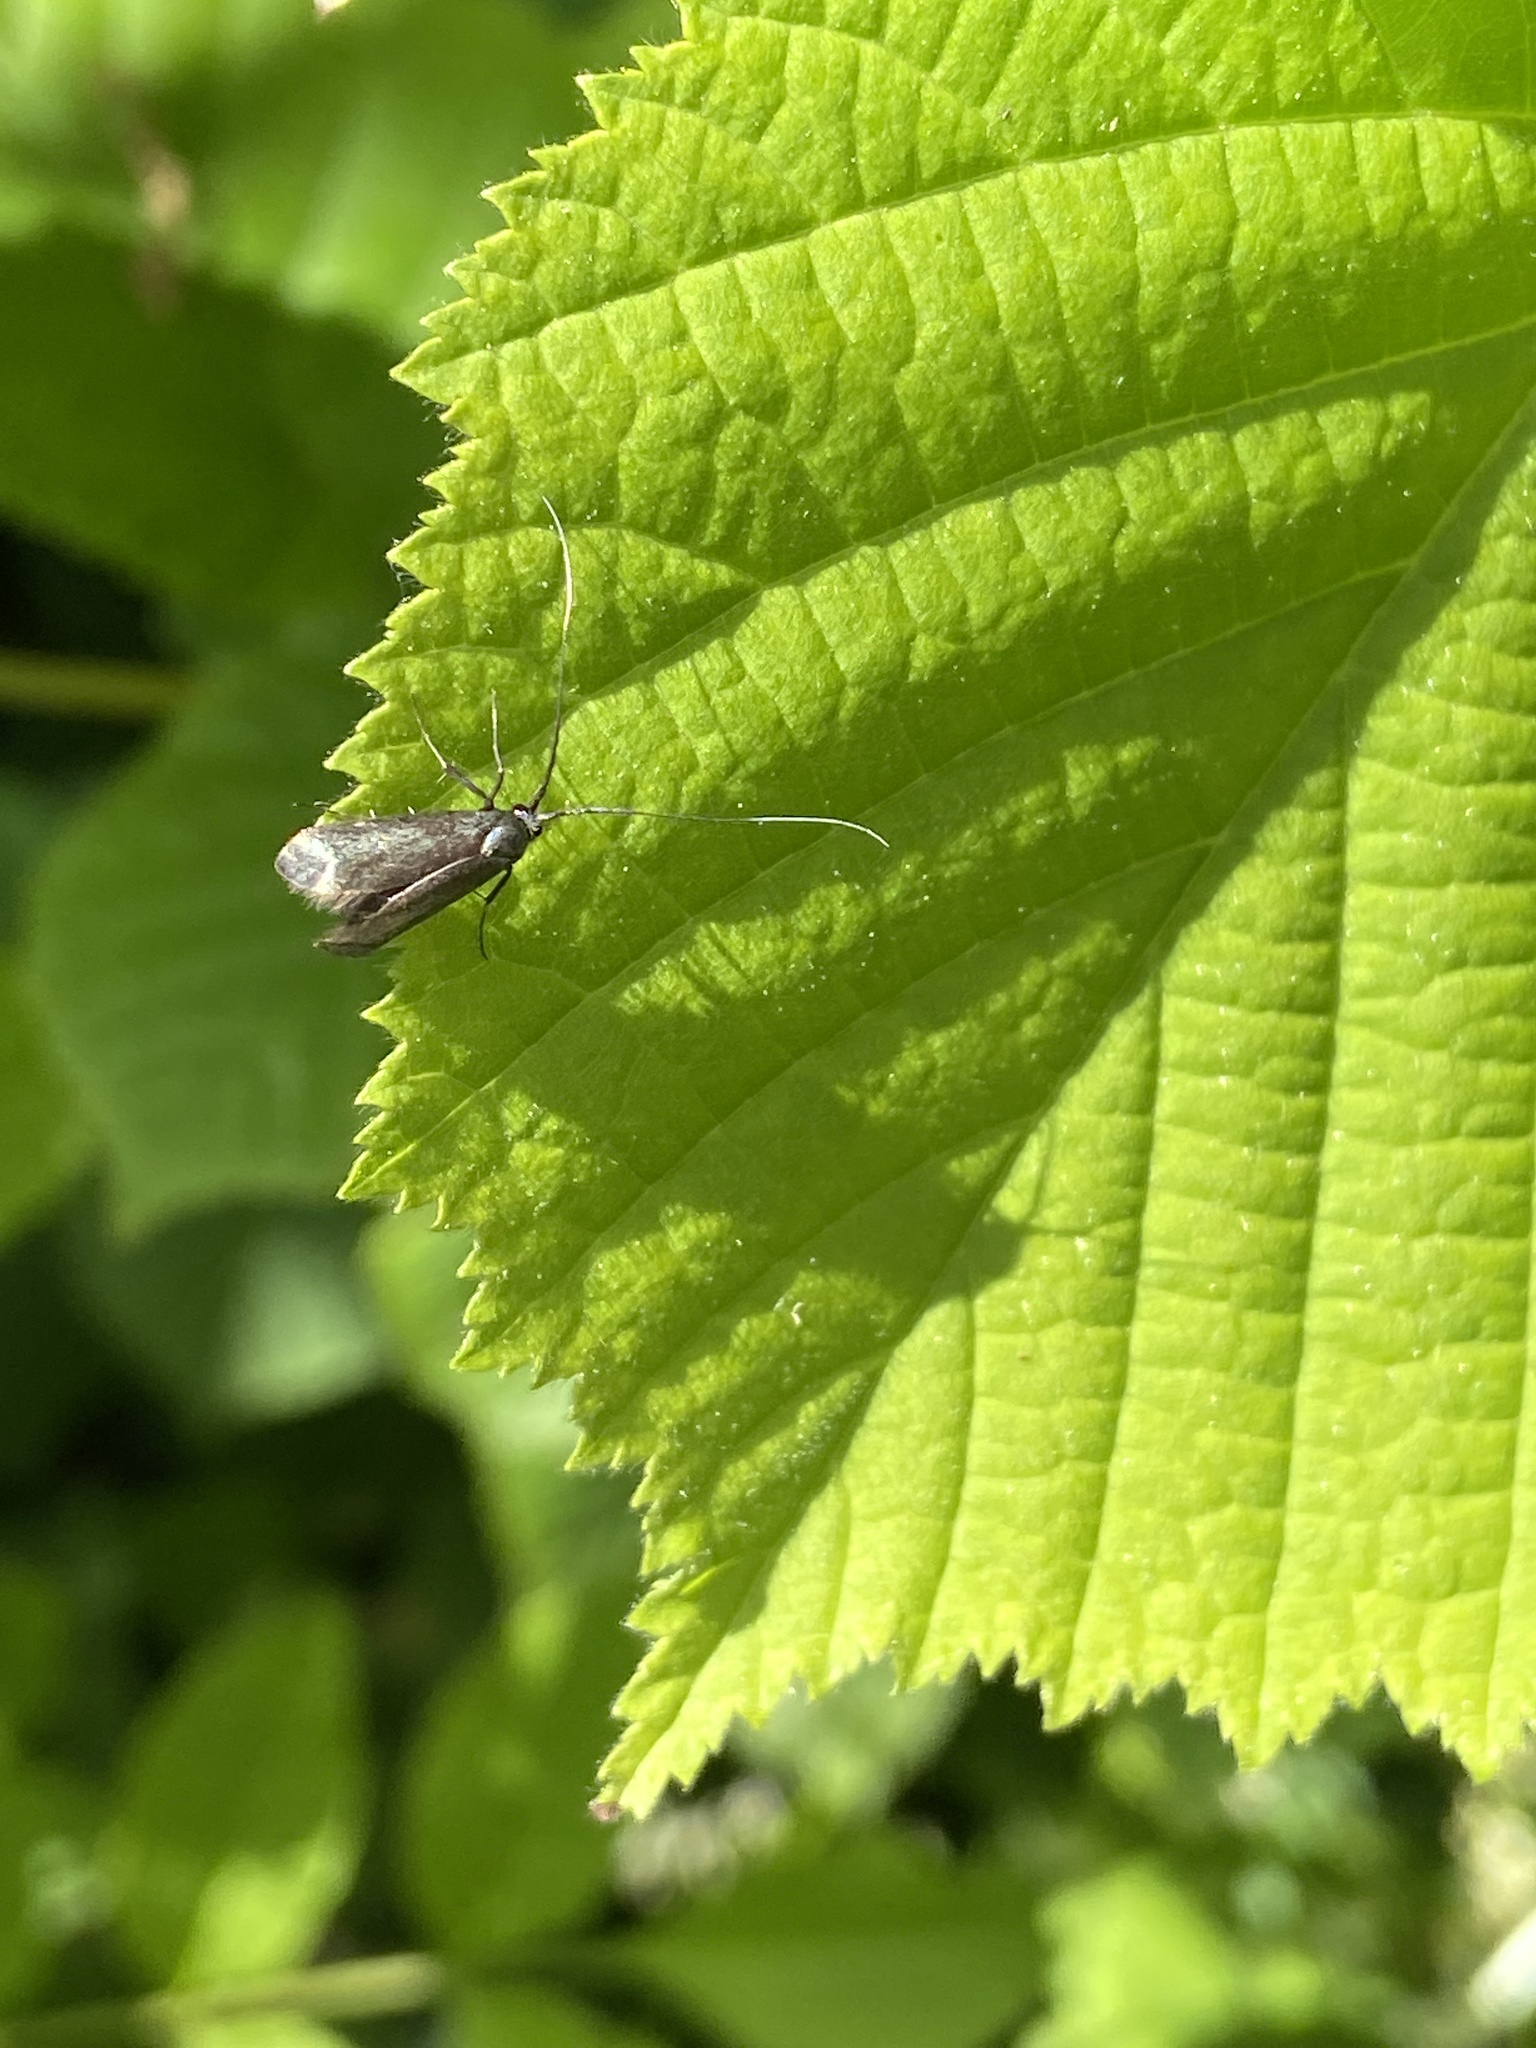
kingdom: Animalia
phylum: Arthropoda
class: Insecta
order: Lepidoptera
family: Adelidae
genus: Adela
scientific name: Adela viridella
